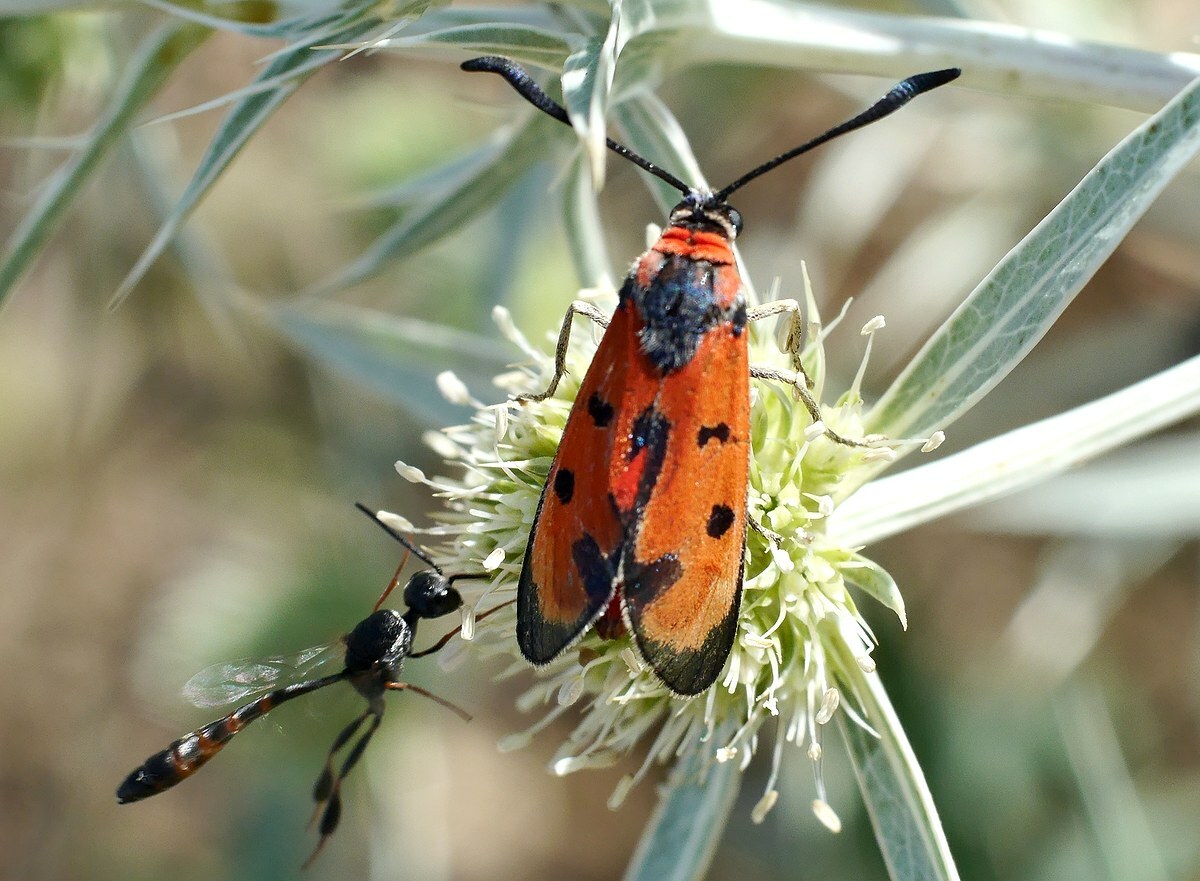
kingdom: Animalia
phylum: Arthropoda
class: Insecta
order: Lepidoptera
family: Zygaenidae
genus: Zygaena
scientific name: Zygaena laeta
